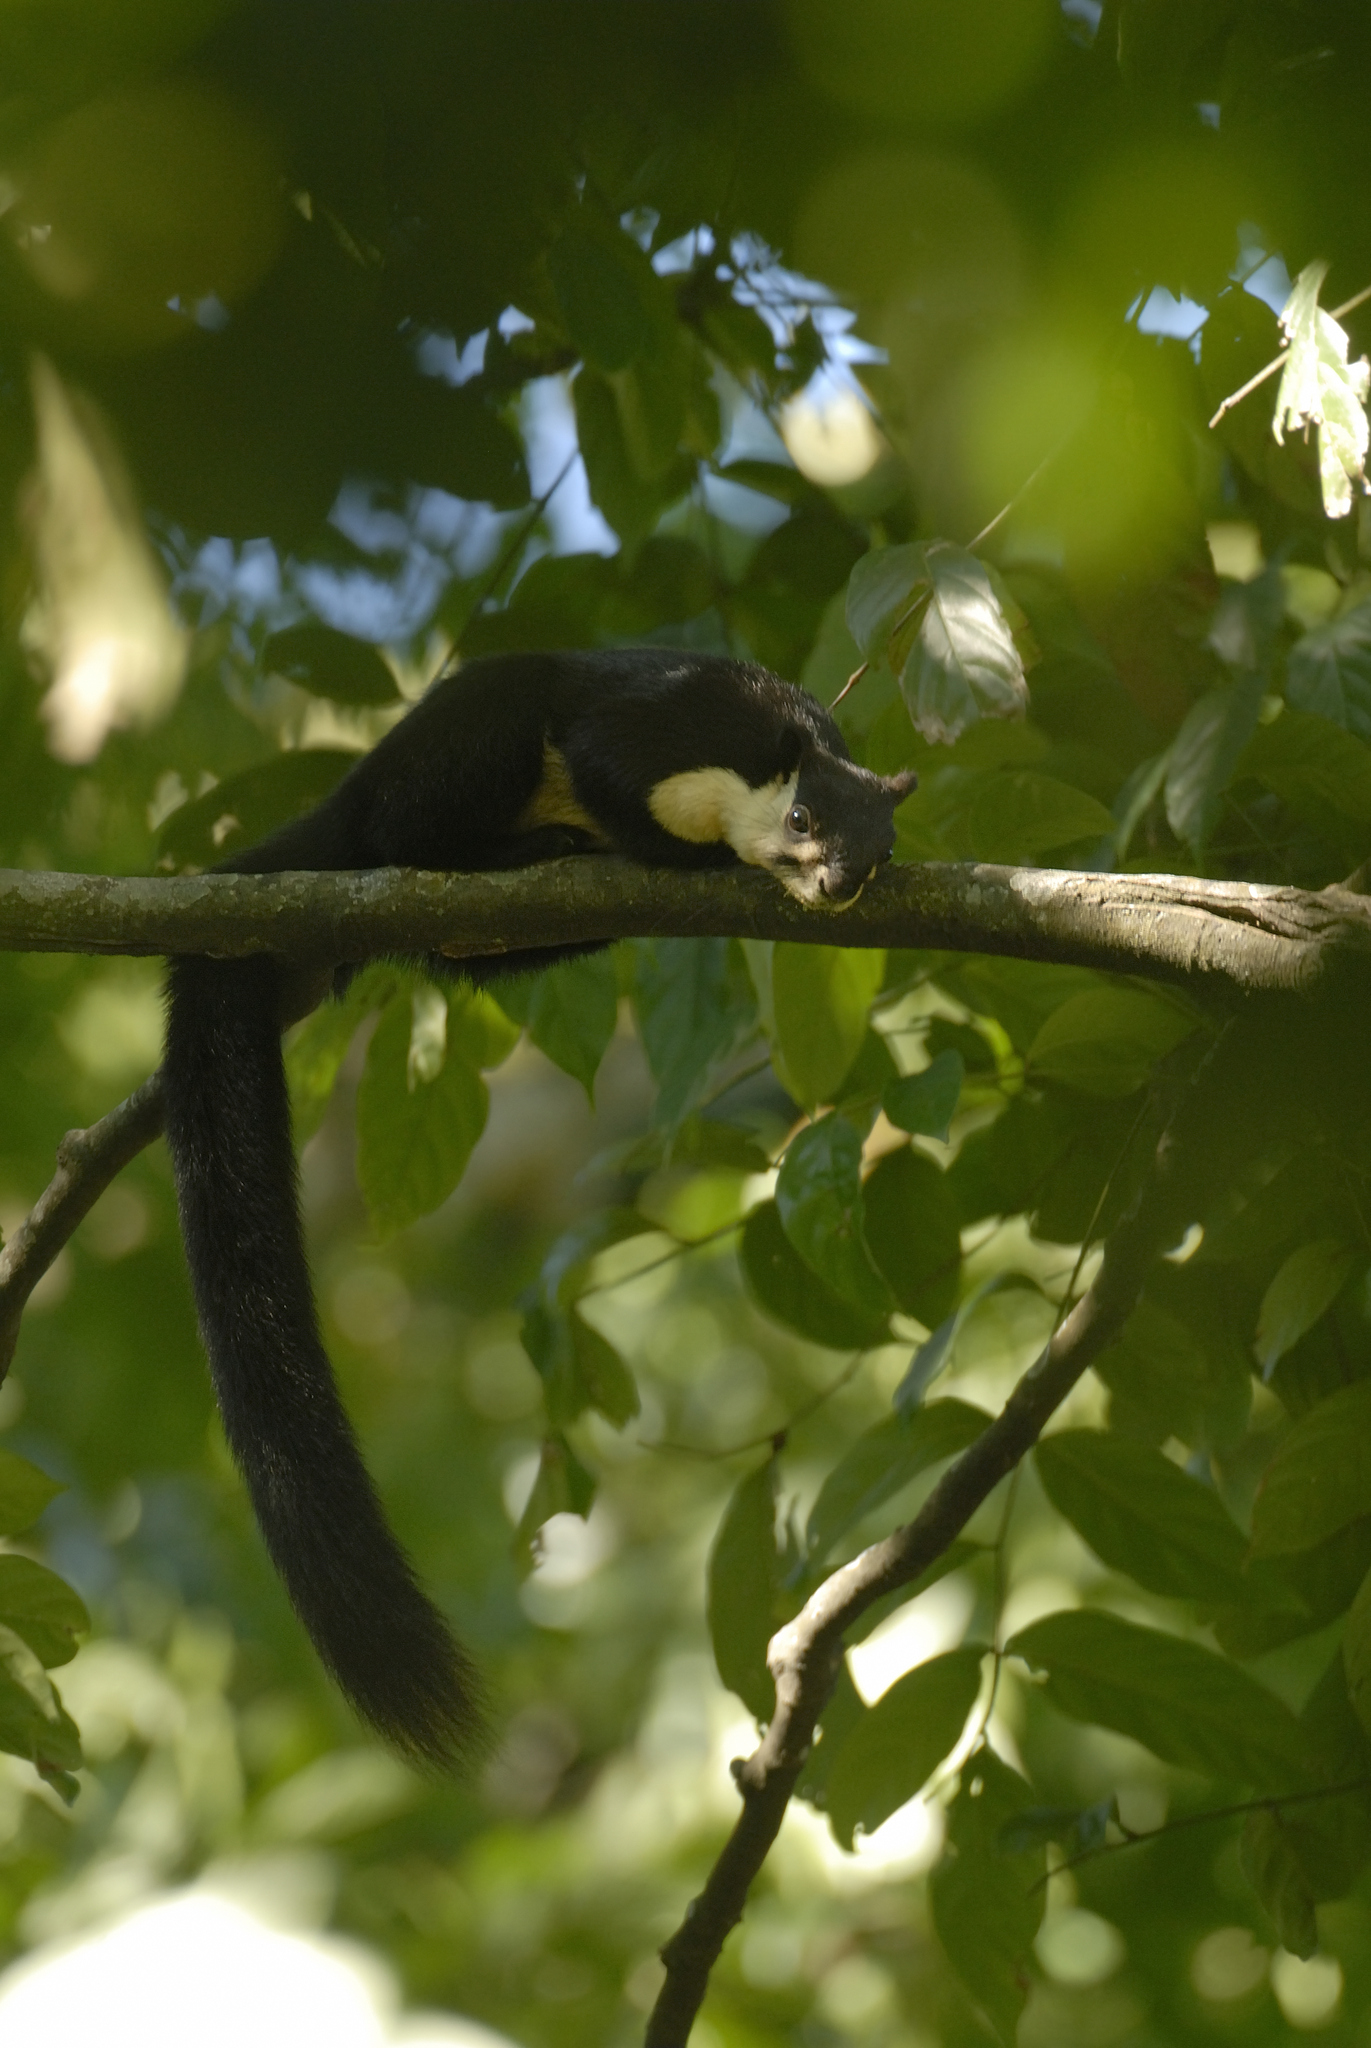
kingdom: Animalia
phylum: Chordata
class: Mammalia
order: Rodentia
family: Sciuridae
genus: Ratufa
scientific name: Ratufa bicolor
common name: Black giant squirrel
